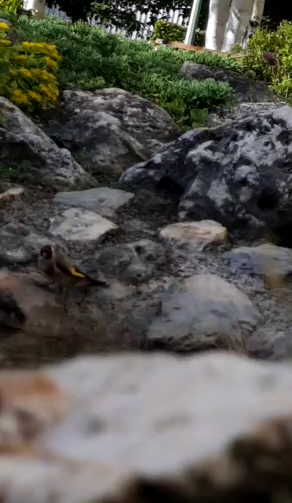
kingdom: Animalia
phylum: Chordata
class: Aves
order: Passeriformes
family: Fringillidae
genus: Carduelis
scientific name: Carduelis carduelis
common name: European goldfinch
